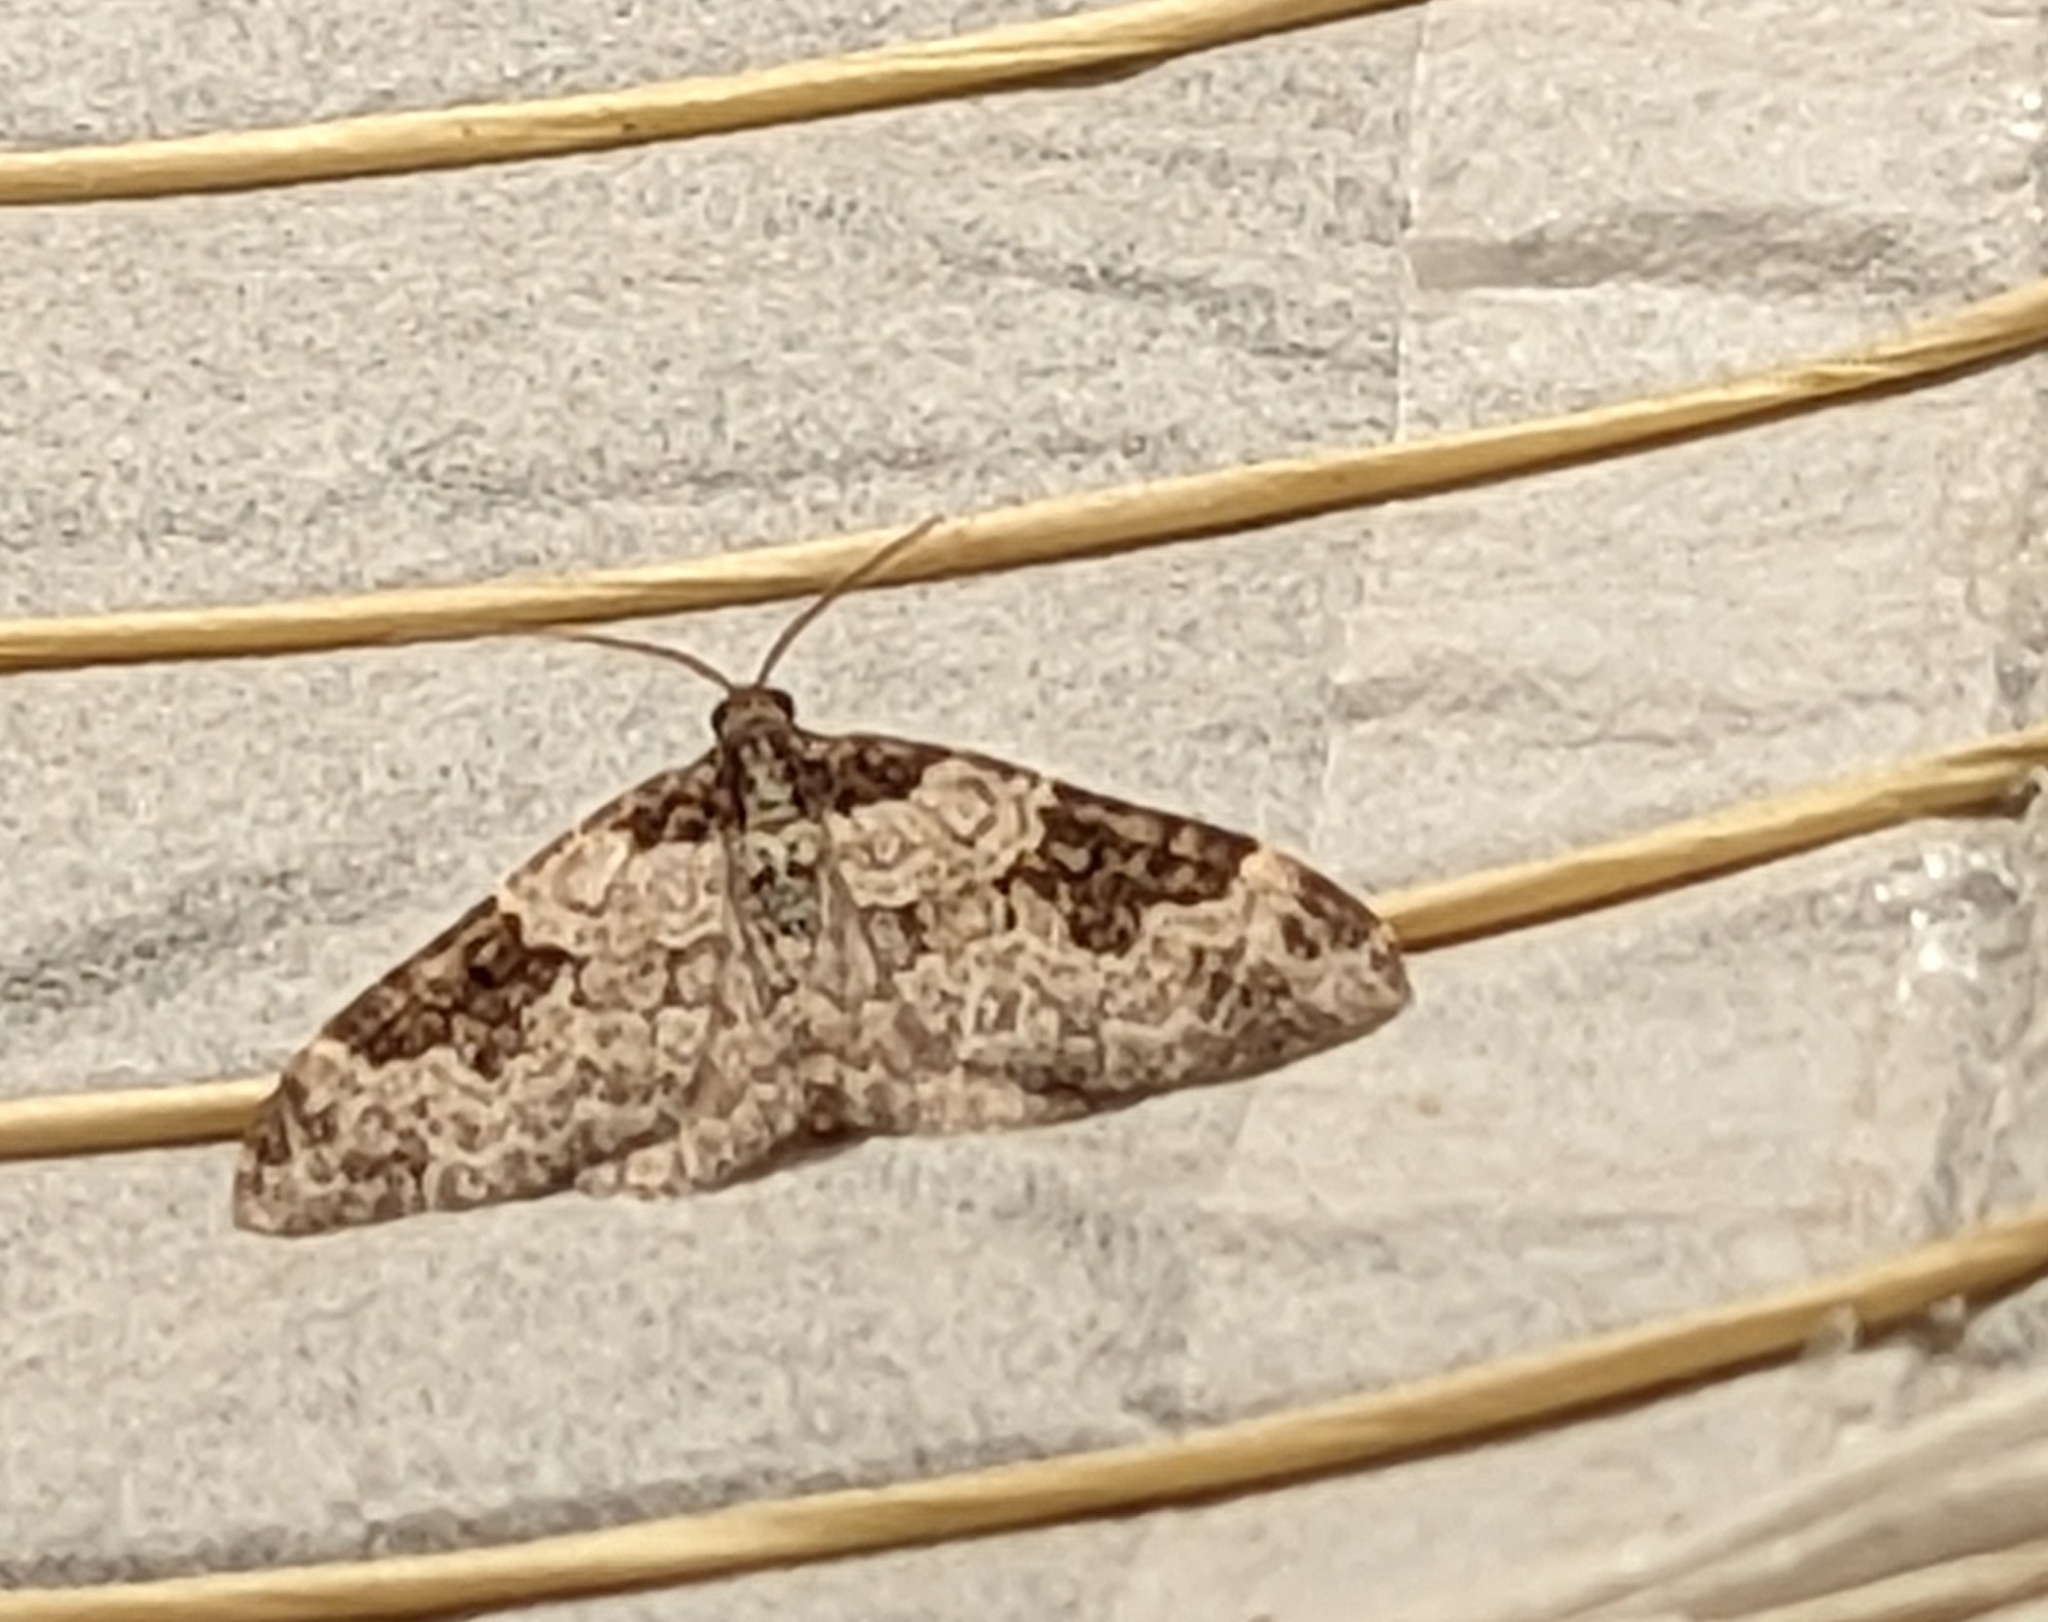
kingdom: Animalia
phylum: Arthropoda
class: Insecta
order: Lepidoptera
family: Geometridae
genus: Xanthorhoe
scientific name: Xanthorhoe fluctuata
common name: Garden carpet
